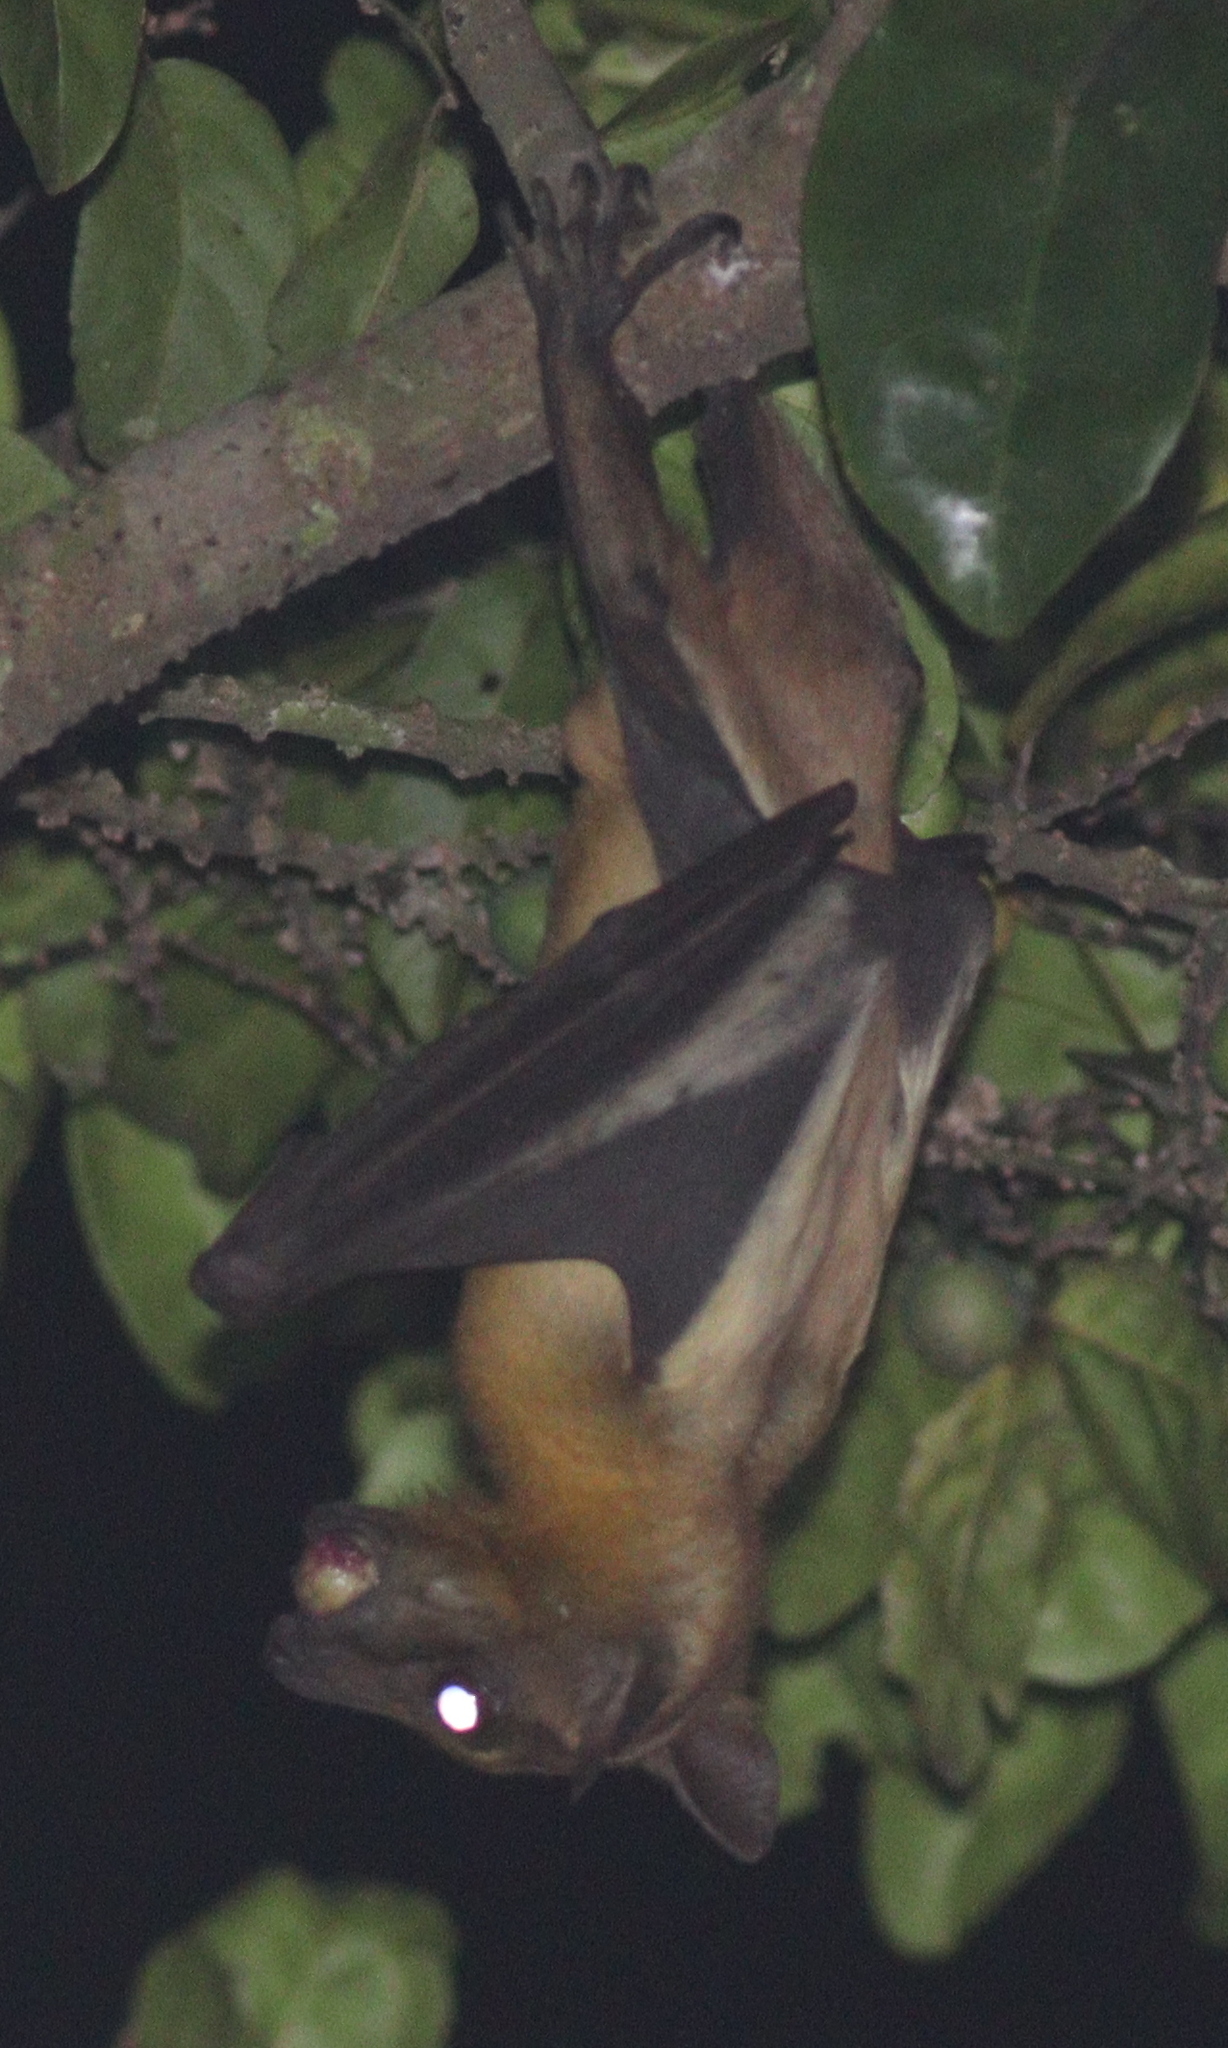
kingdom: Animalia
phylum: Chordata
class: Mammalia
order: Chiroptera
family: Pteropodidae
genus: Eidolon
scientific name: Eidolon helvum
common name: Straw-colored fruit bat
